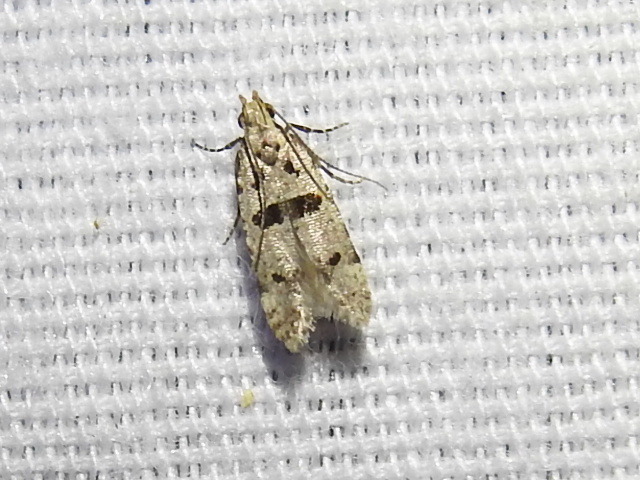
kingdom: Animalia
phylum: Arthropoda
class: Insecta
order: Lepidoptera
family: Gelechiidae
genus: Deltophora
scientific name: Deltophora glandiferella
